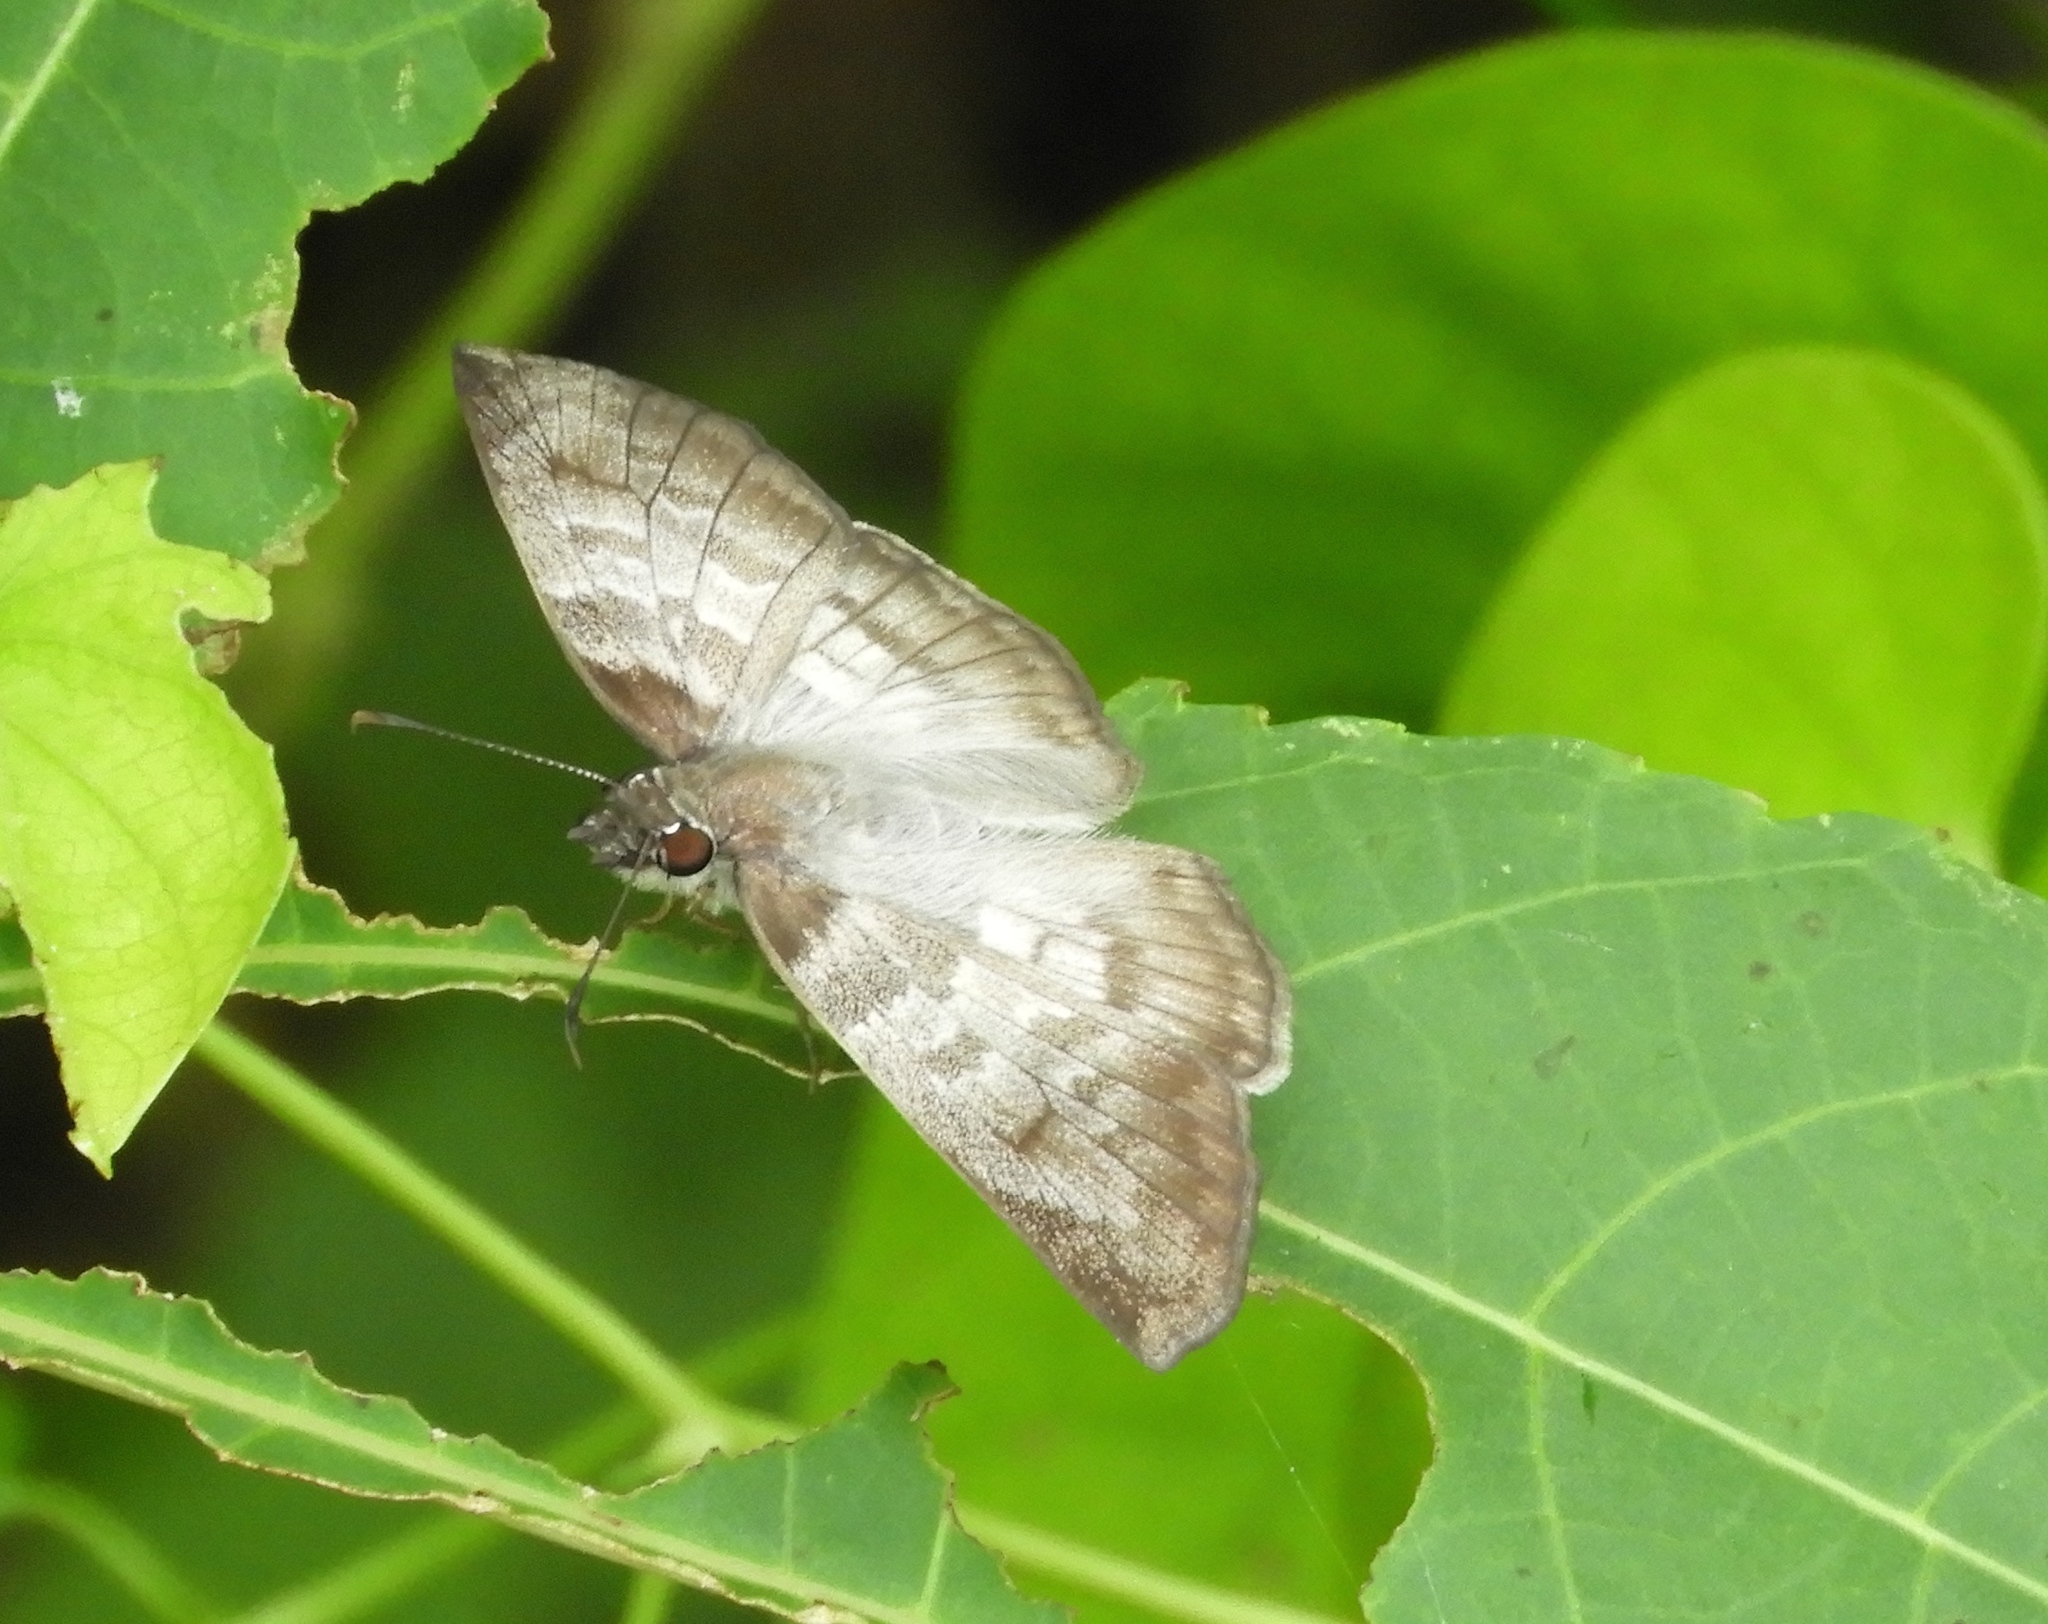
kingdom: Animalia
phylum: Arthropoda
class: Insecta
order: Lepidoptera
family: Hesperiidae
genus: Mylon
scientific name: Mylon pelopidas
